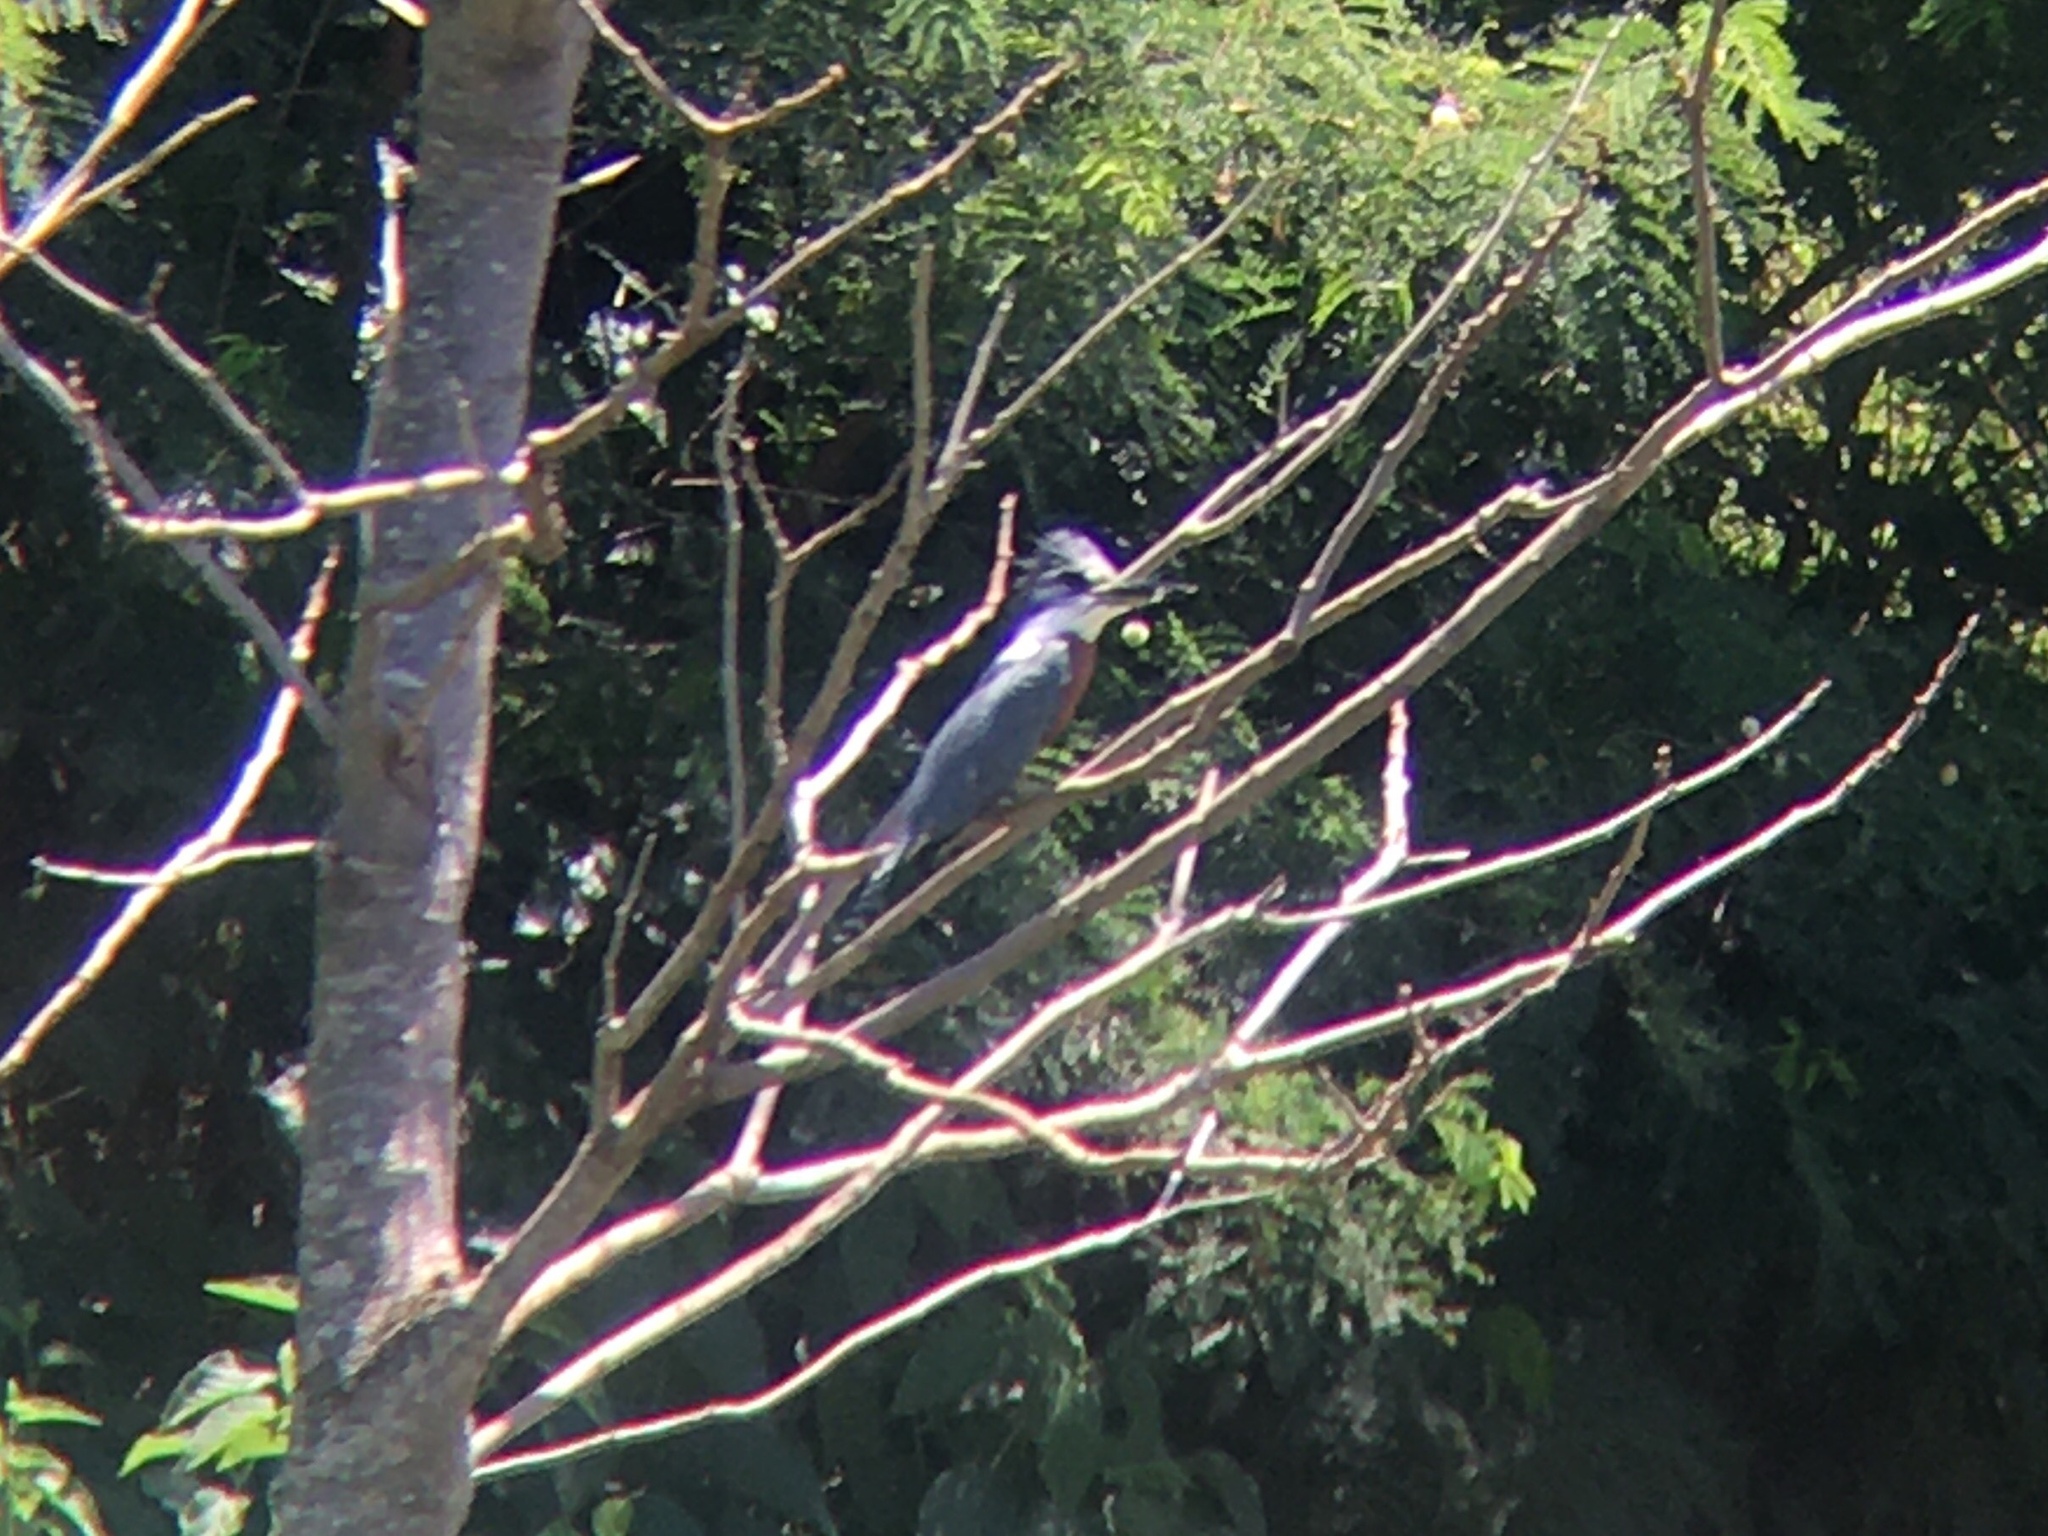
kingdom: Animalia
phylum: Chordata
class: Aves
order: Coraciiformes
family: Alcedinidae
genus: Megaceryle
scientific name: Megaceryle torquata
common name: Ringed kingfisher
